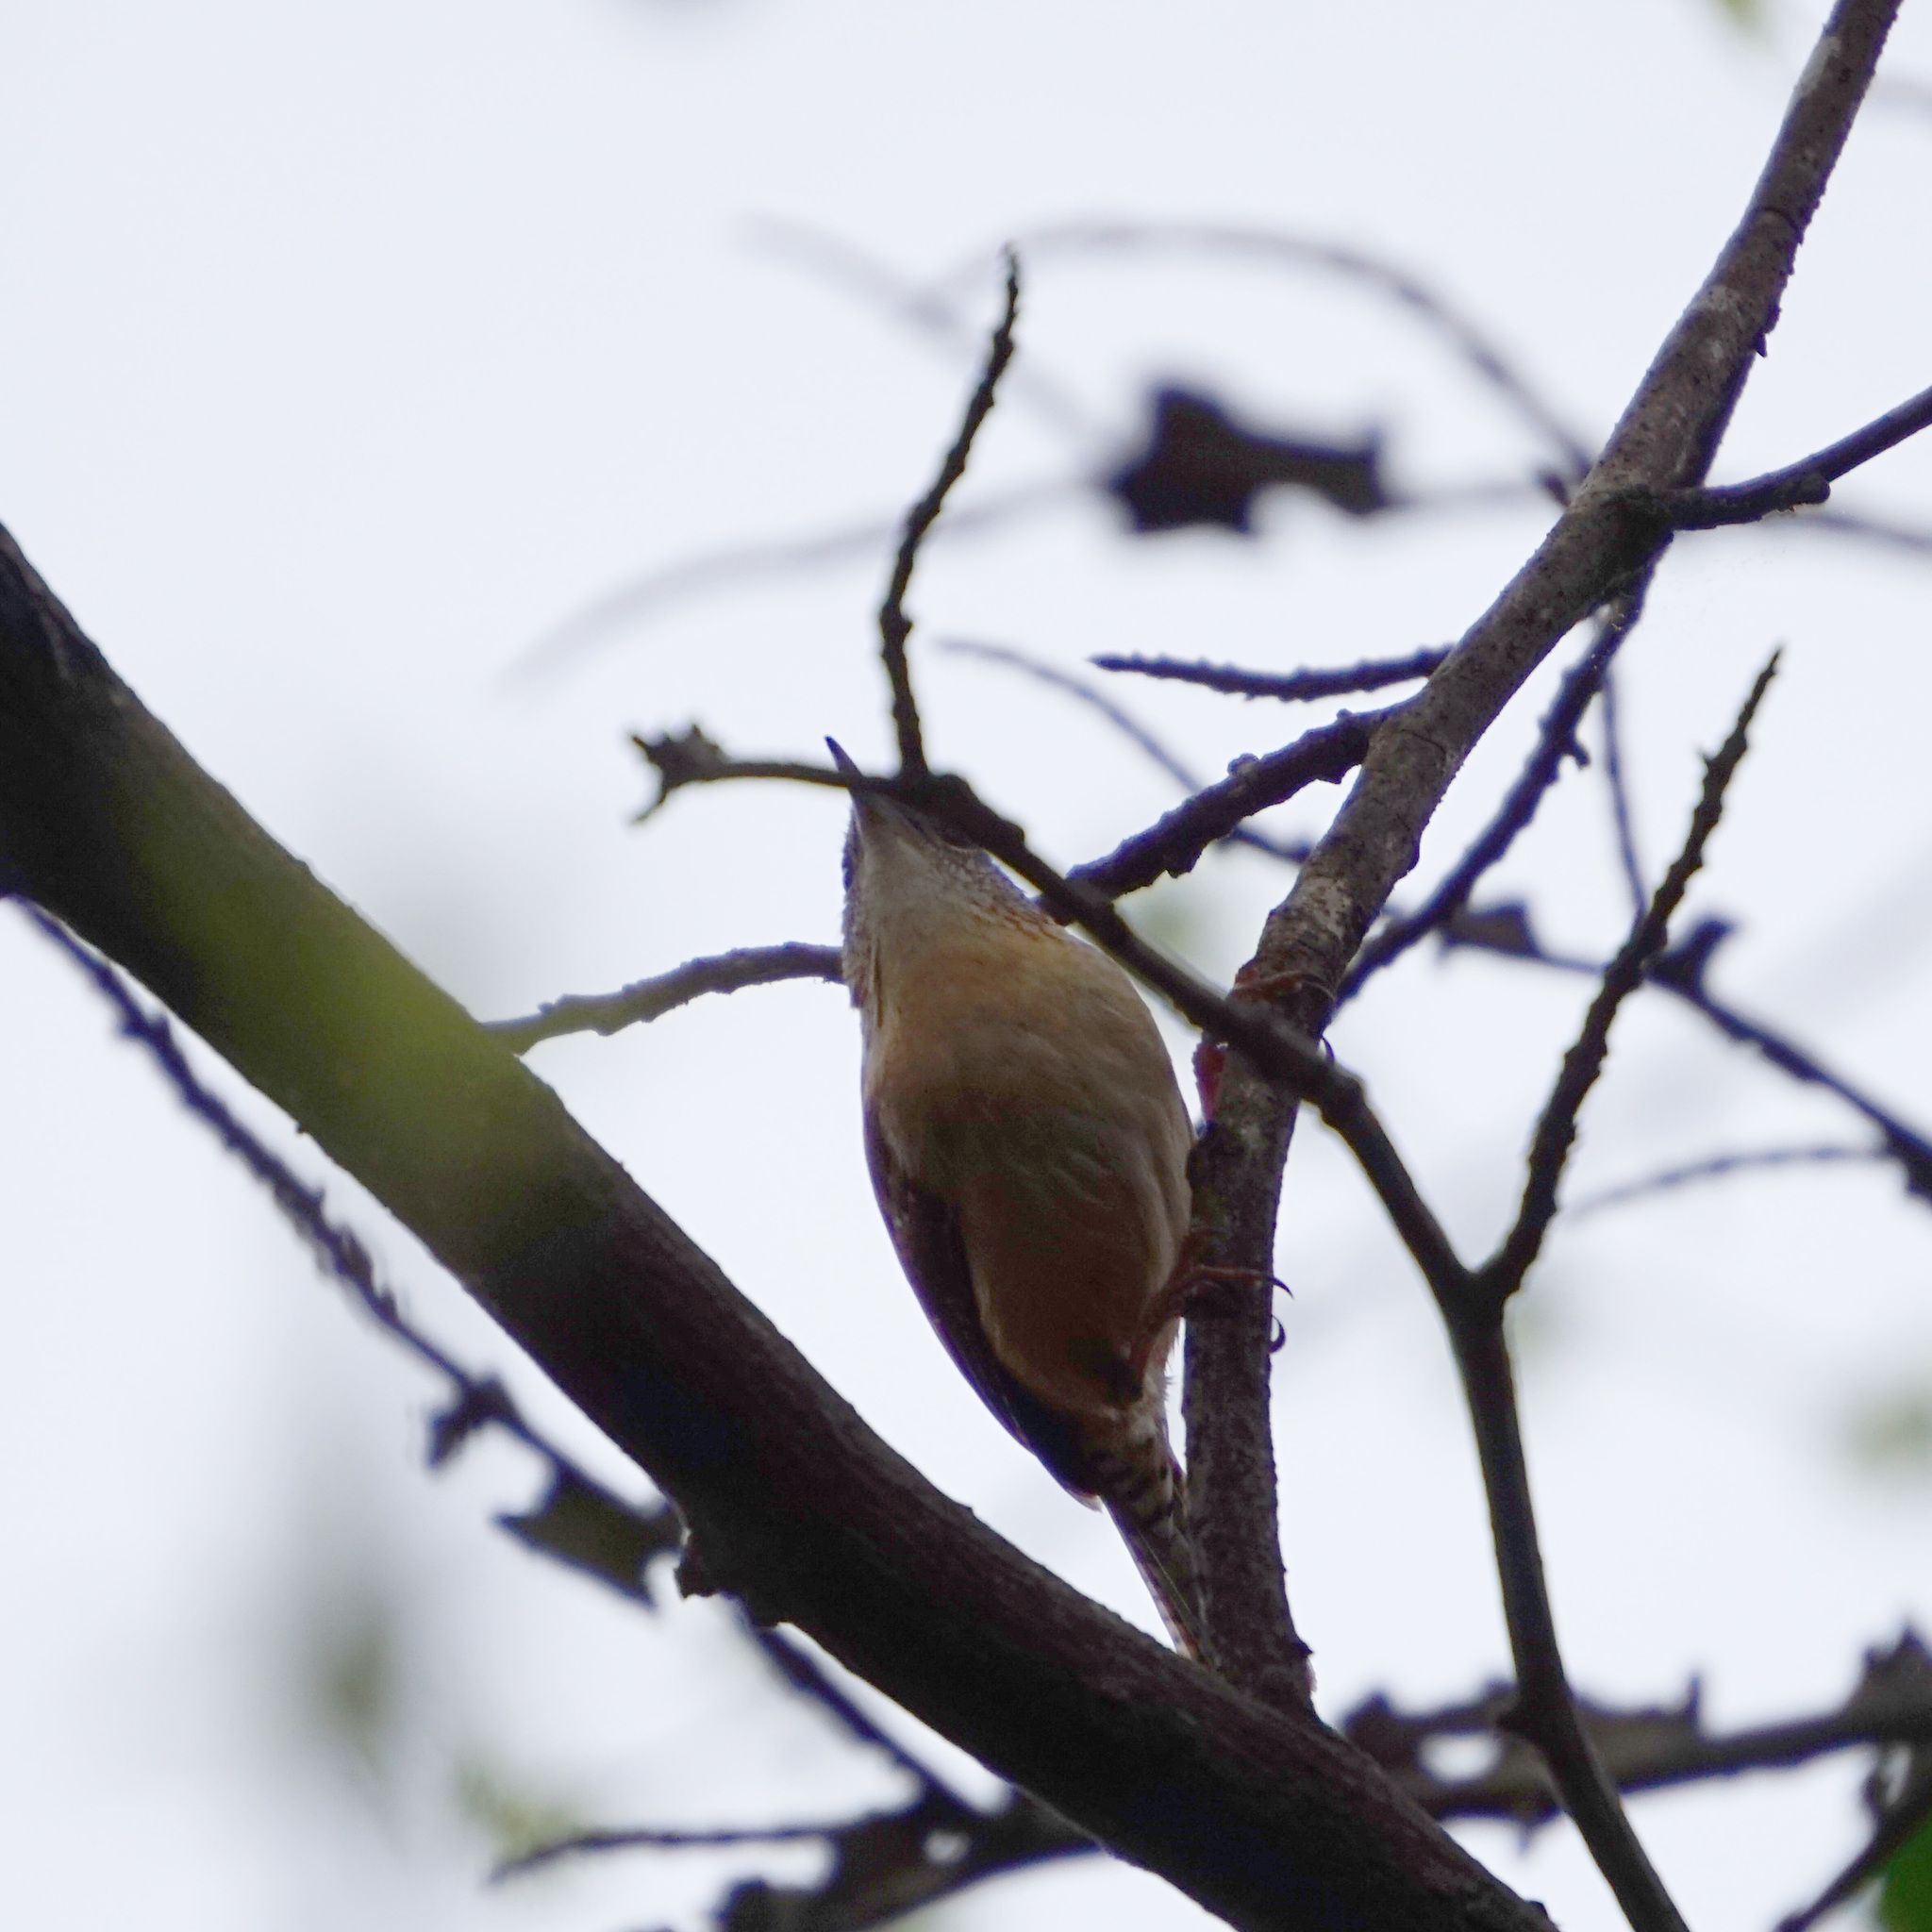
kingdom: Animalia
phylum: Chordata
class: Aves
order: Passeriformes
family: Troglodytidae
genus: Thryothorus
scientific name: Thryothorus ludovicianus
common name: Carolina wren
